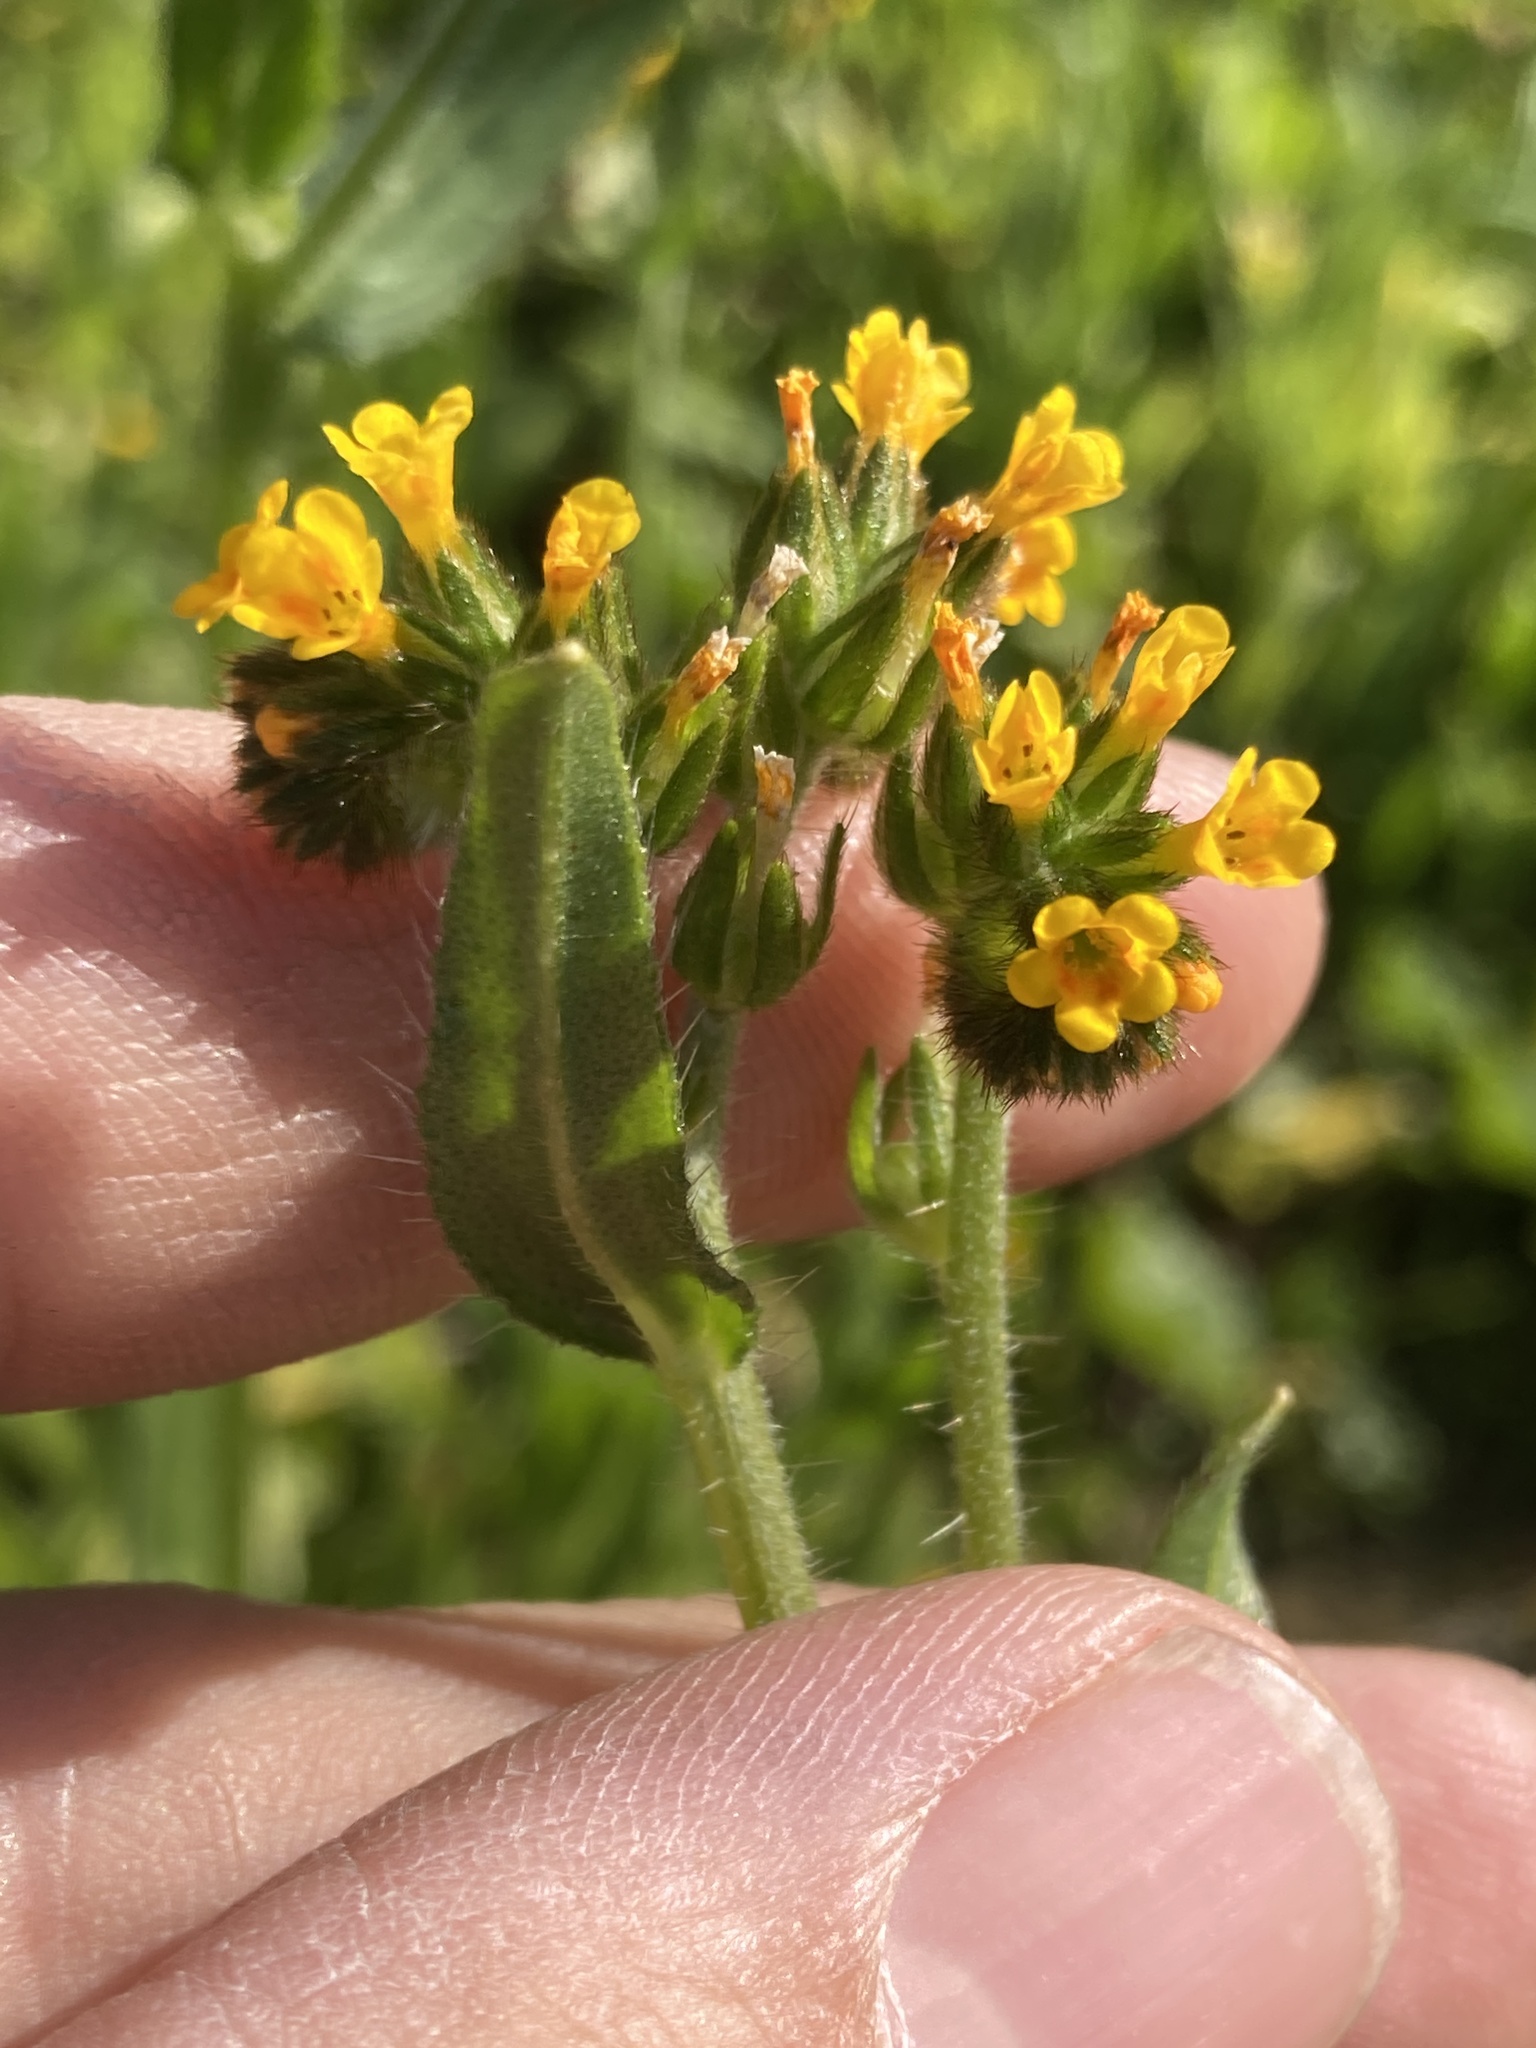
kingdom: Plantae
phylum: Tracheophyta
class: Magnoliopsida
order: Boraginales
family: Boraginaceae
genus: Amsinckia
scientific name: Amsinckia menziesii
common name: Menzies' fiddleneck
